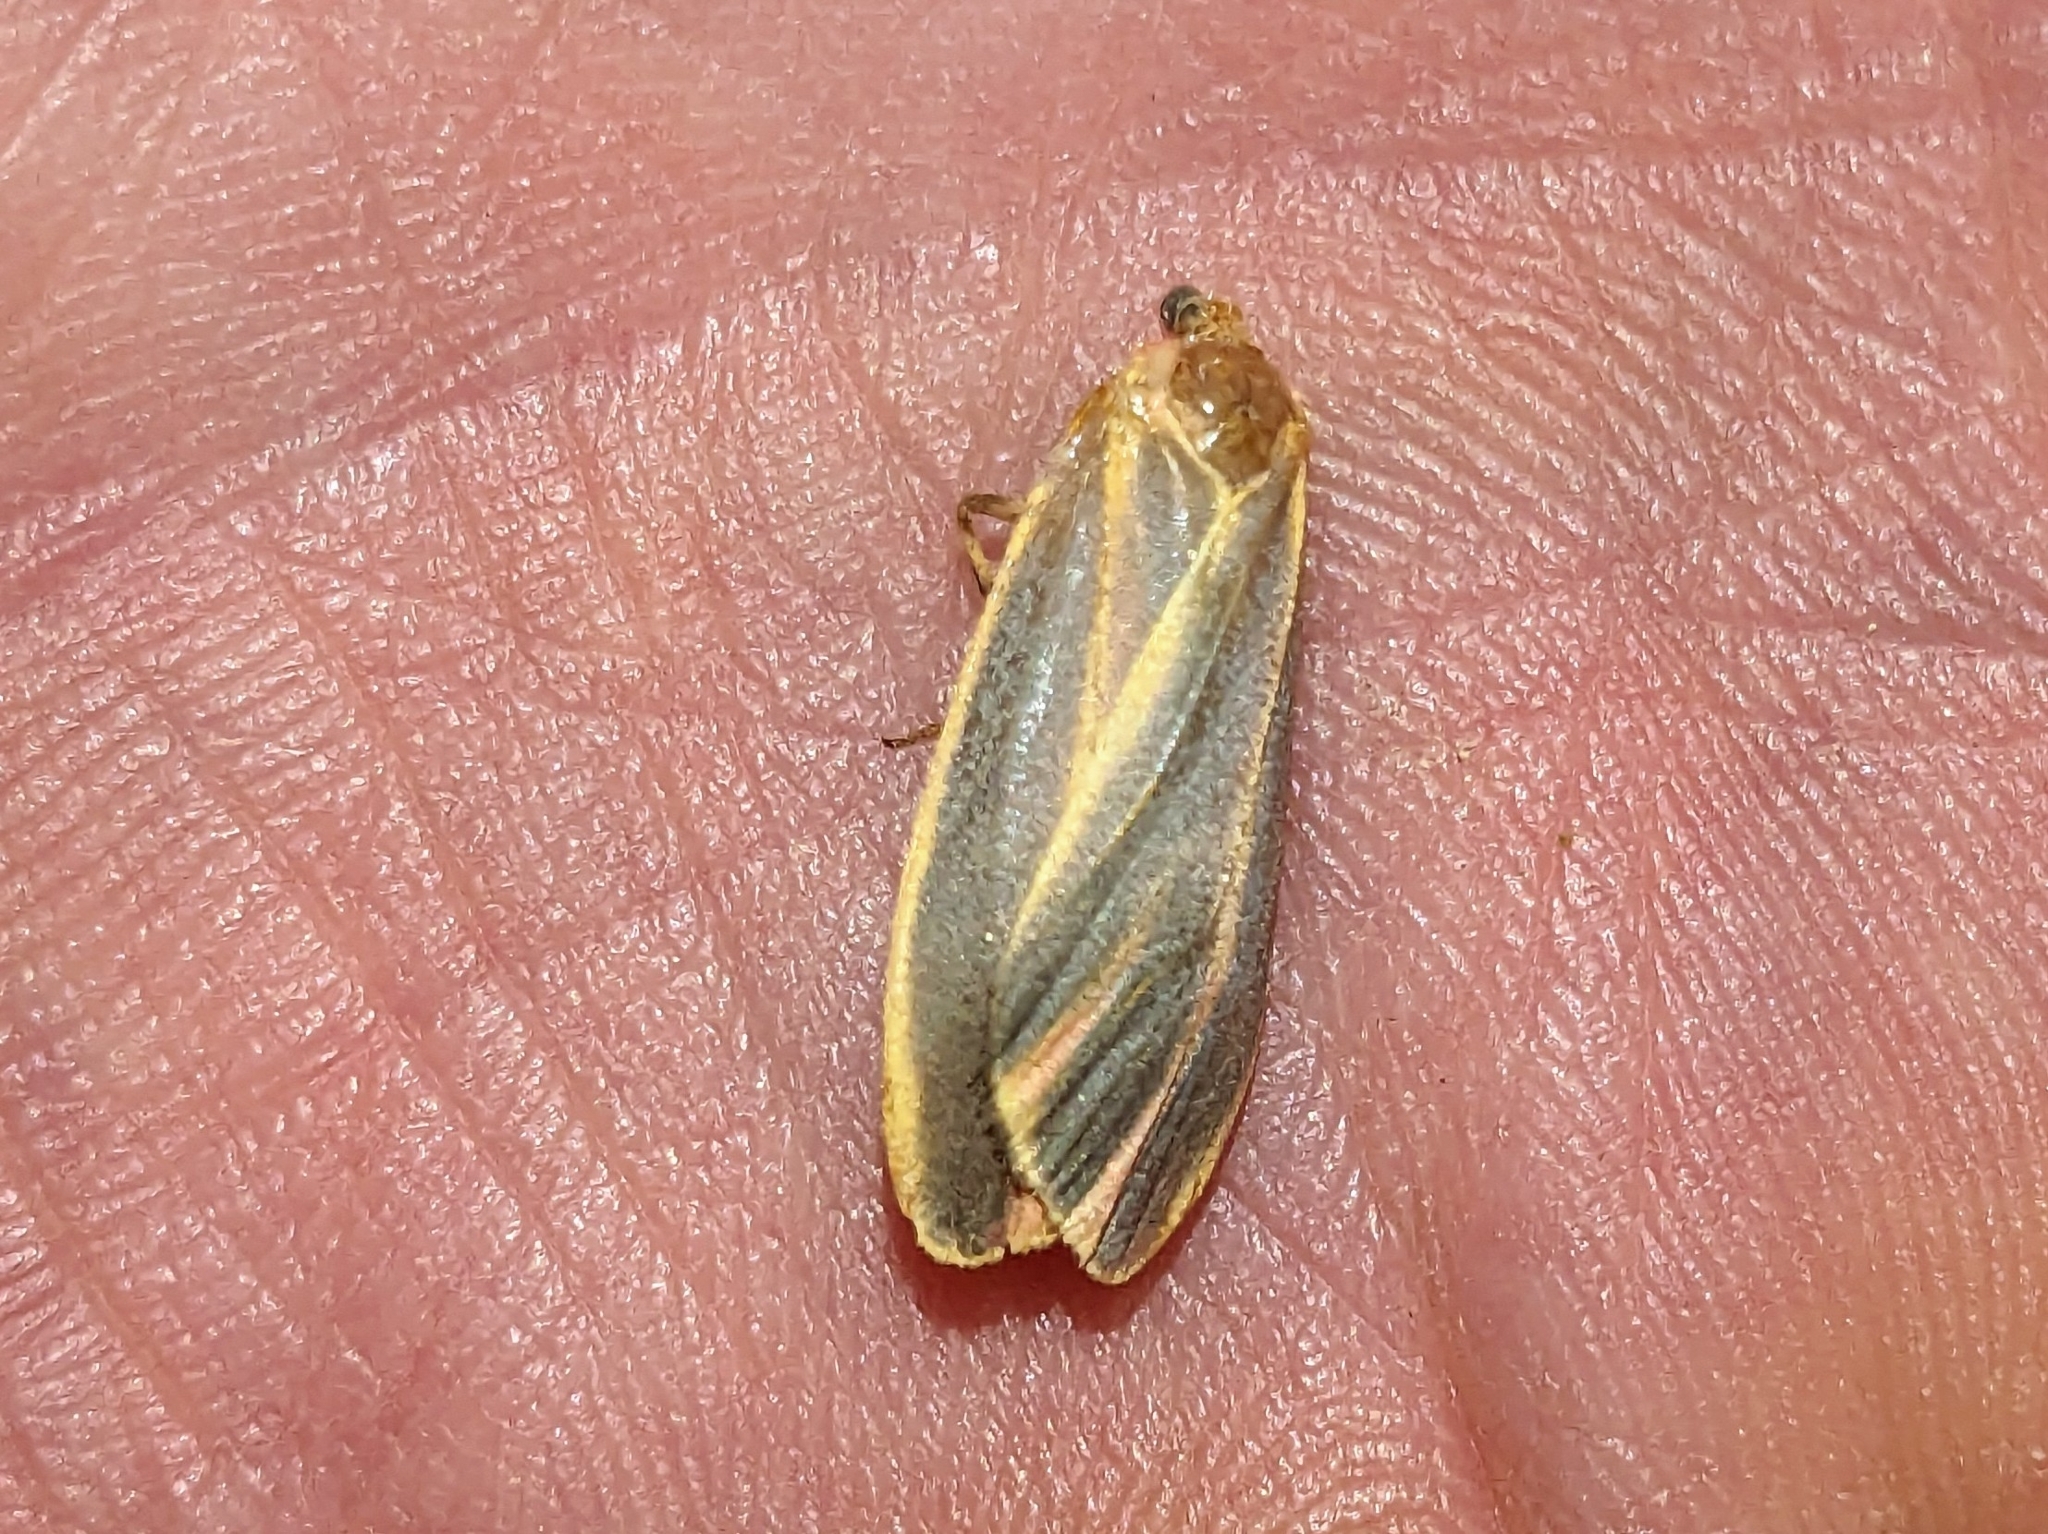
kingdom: Animalia
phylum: Arthropoda
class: Insecta
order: Lepidoptera
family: Erebidae
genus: Hypoprepia
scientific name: Hypoprepia fucosa
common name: Painted lichen moth
